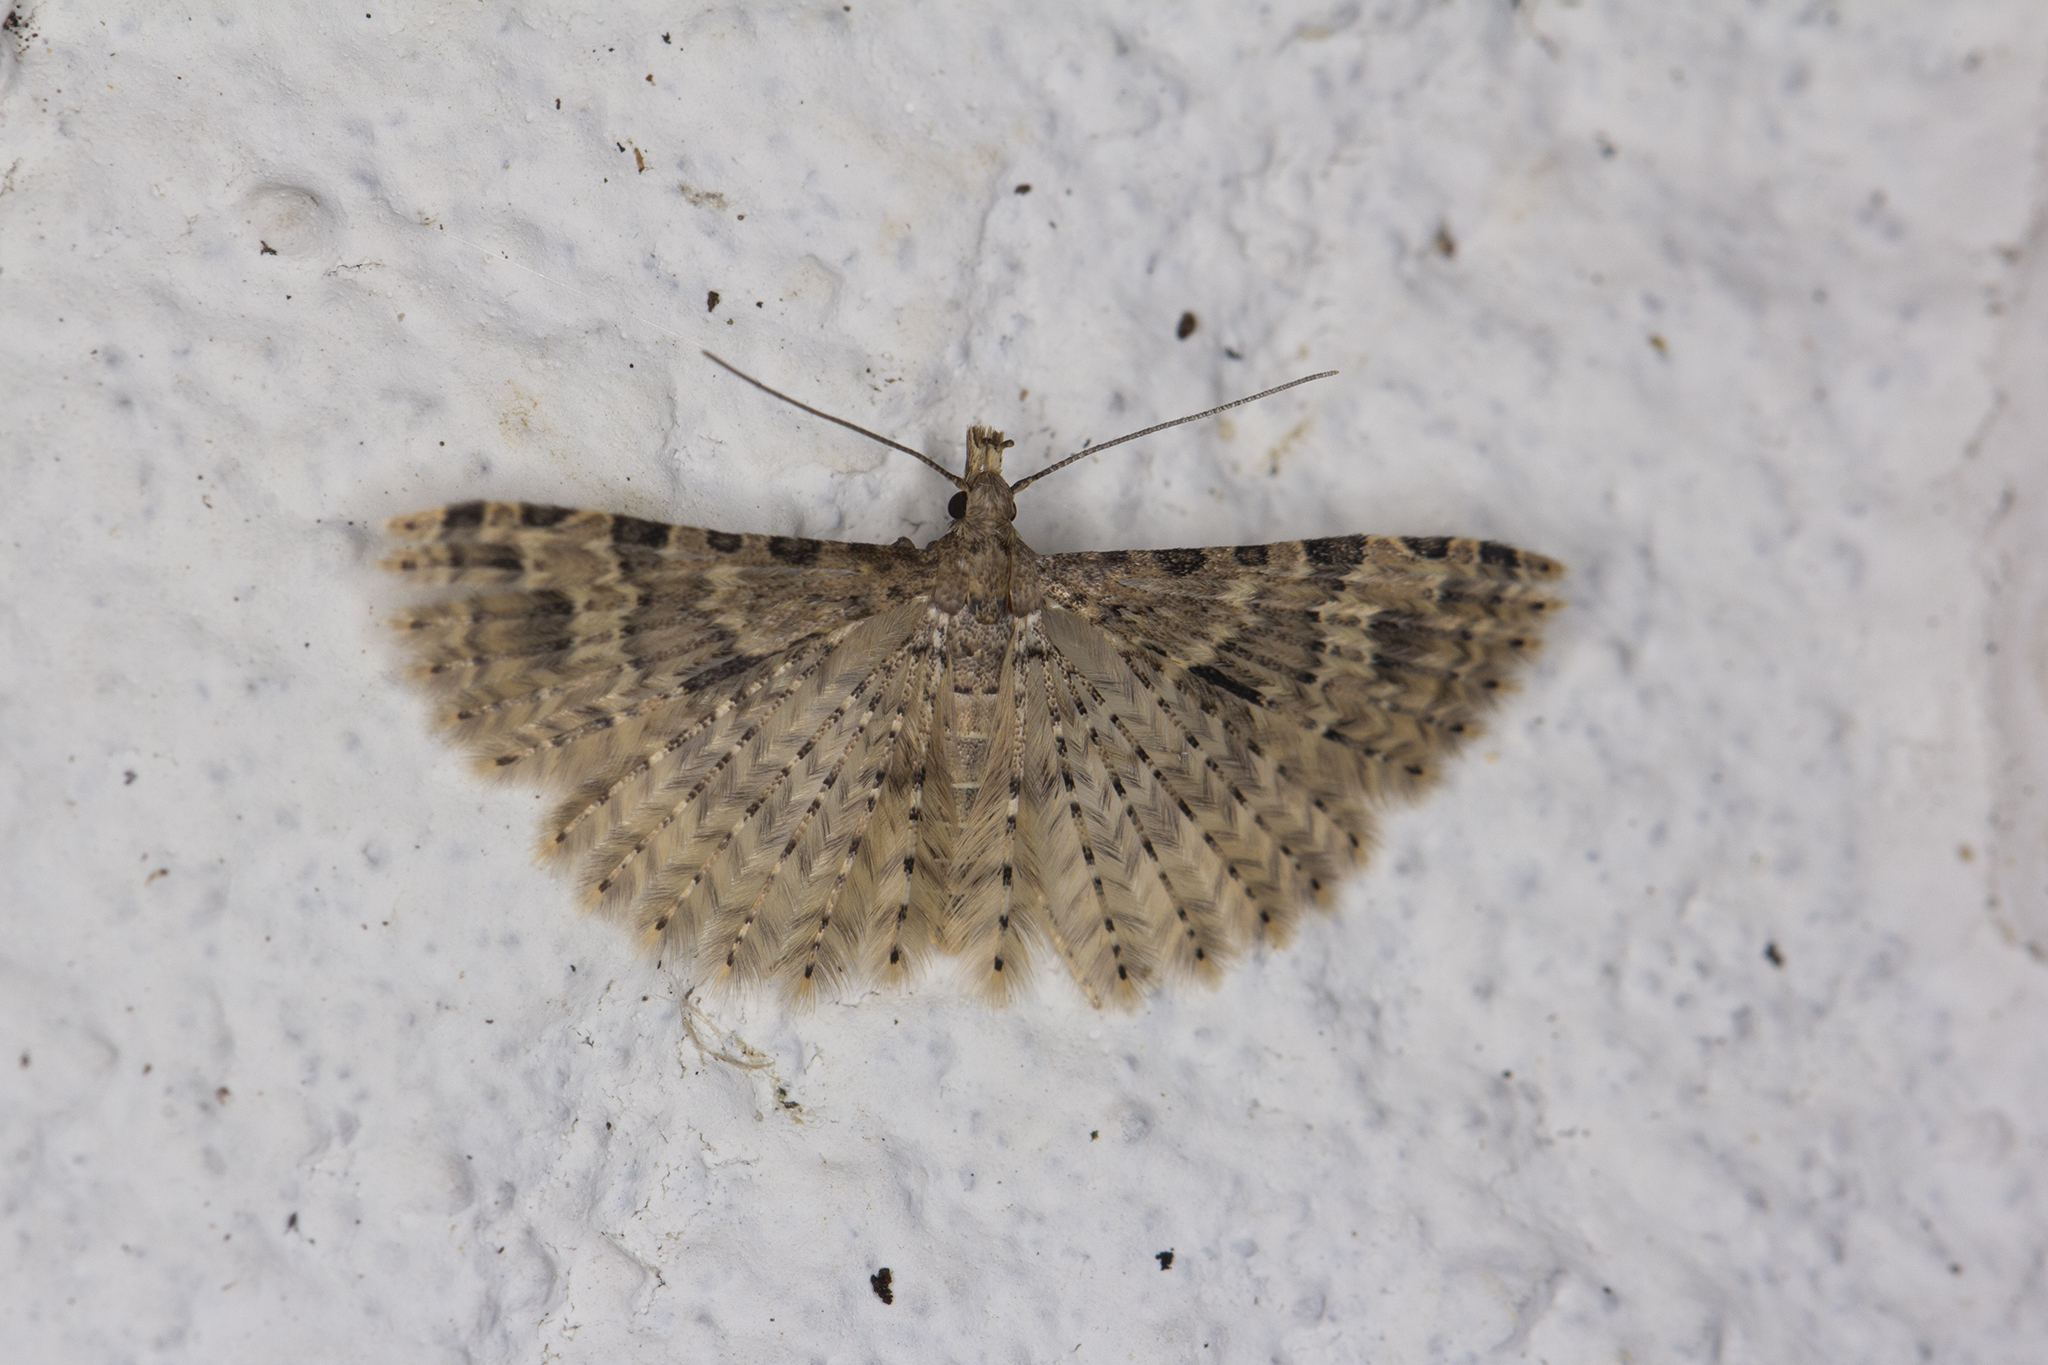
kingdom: Animalia
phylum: Arthropoda
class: Insecta
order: Lepidoptera
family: Alucitidae
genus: Alucita
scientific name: Alucita hexadactyla
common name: Twenty-plume moth
